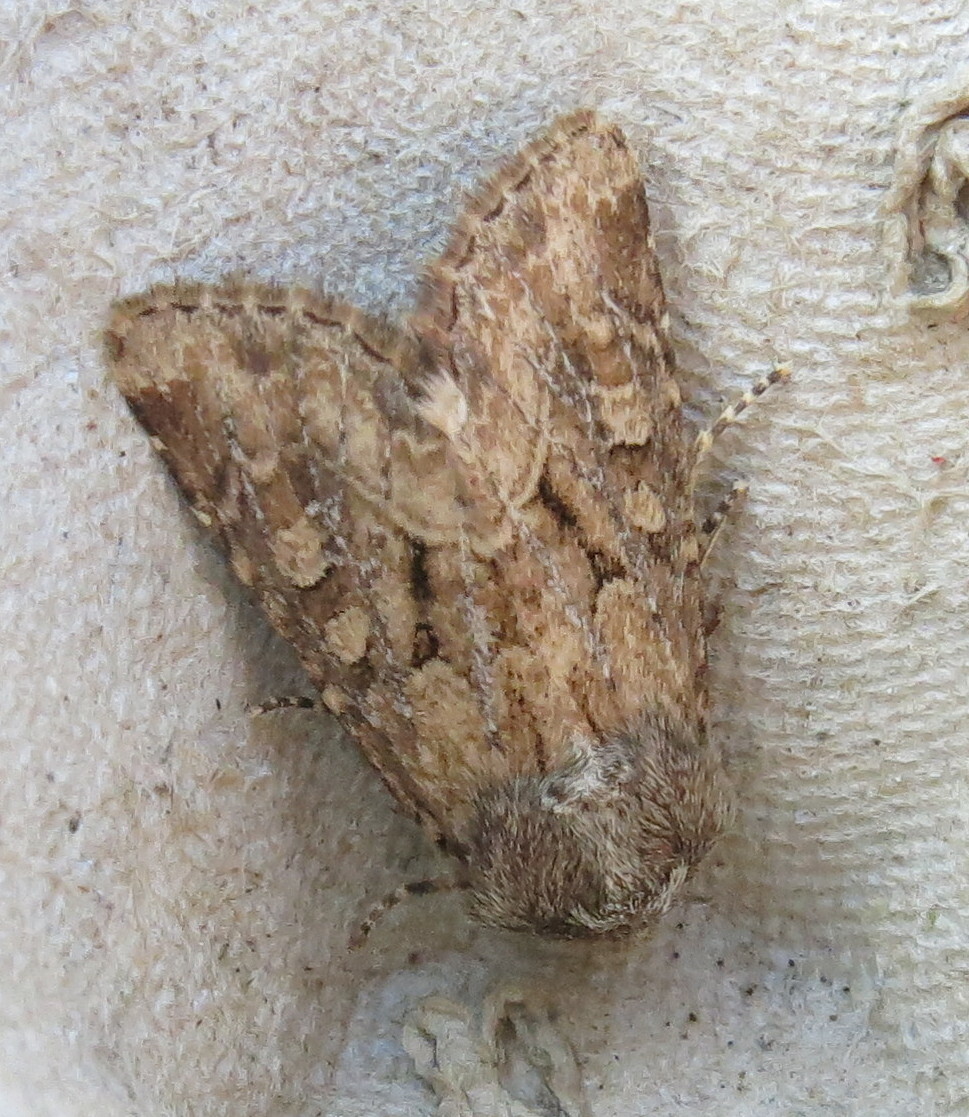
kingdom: Animalia
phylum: Arthropoda
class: Insecta
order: Lepidoptera
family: Noctuidae
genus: Luperina
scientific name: Luperina testacea
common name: Flounced rustic
